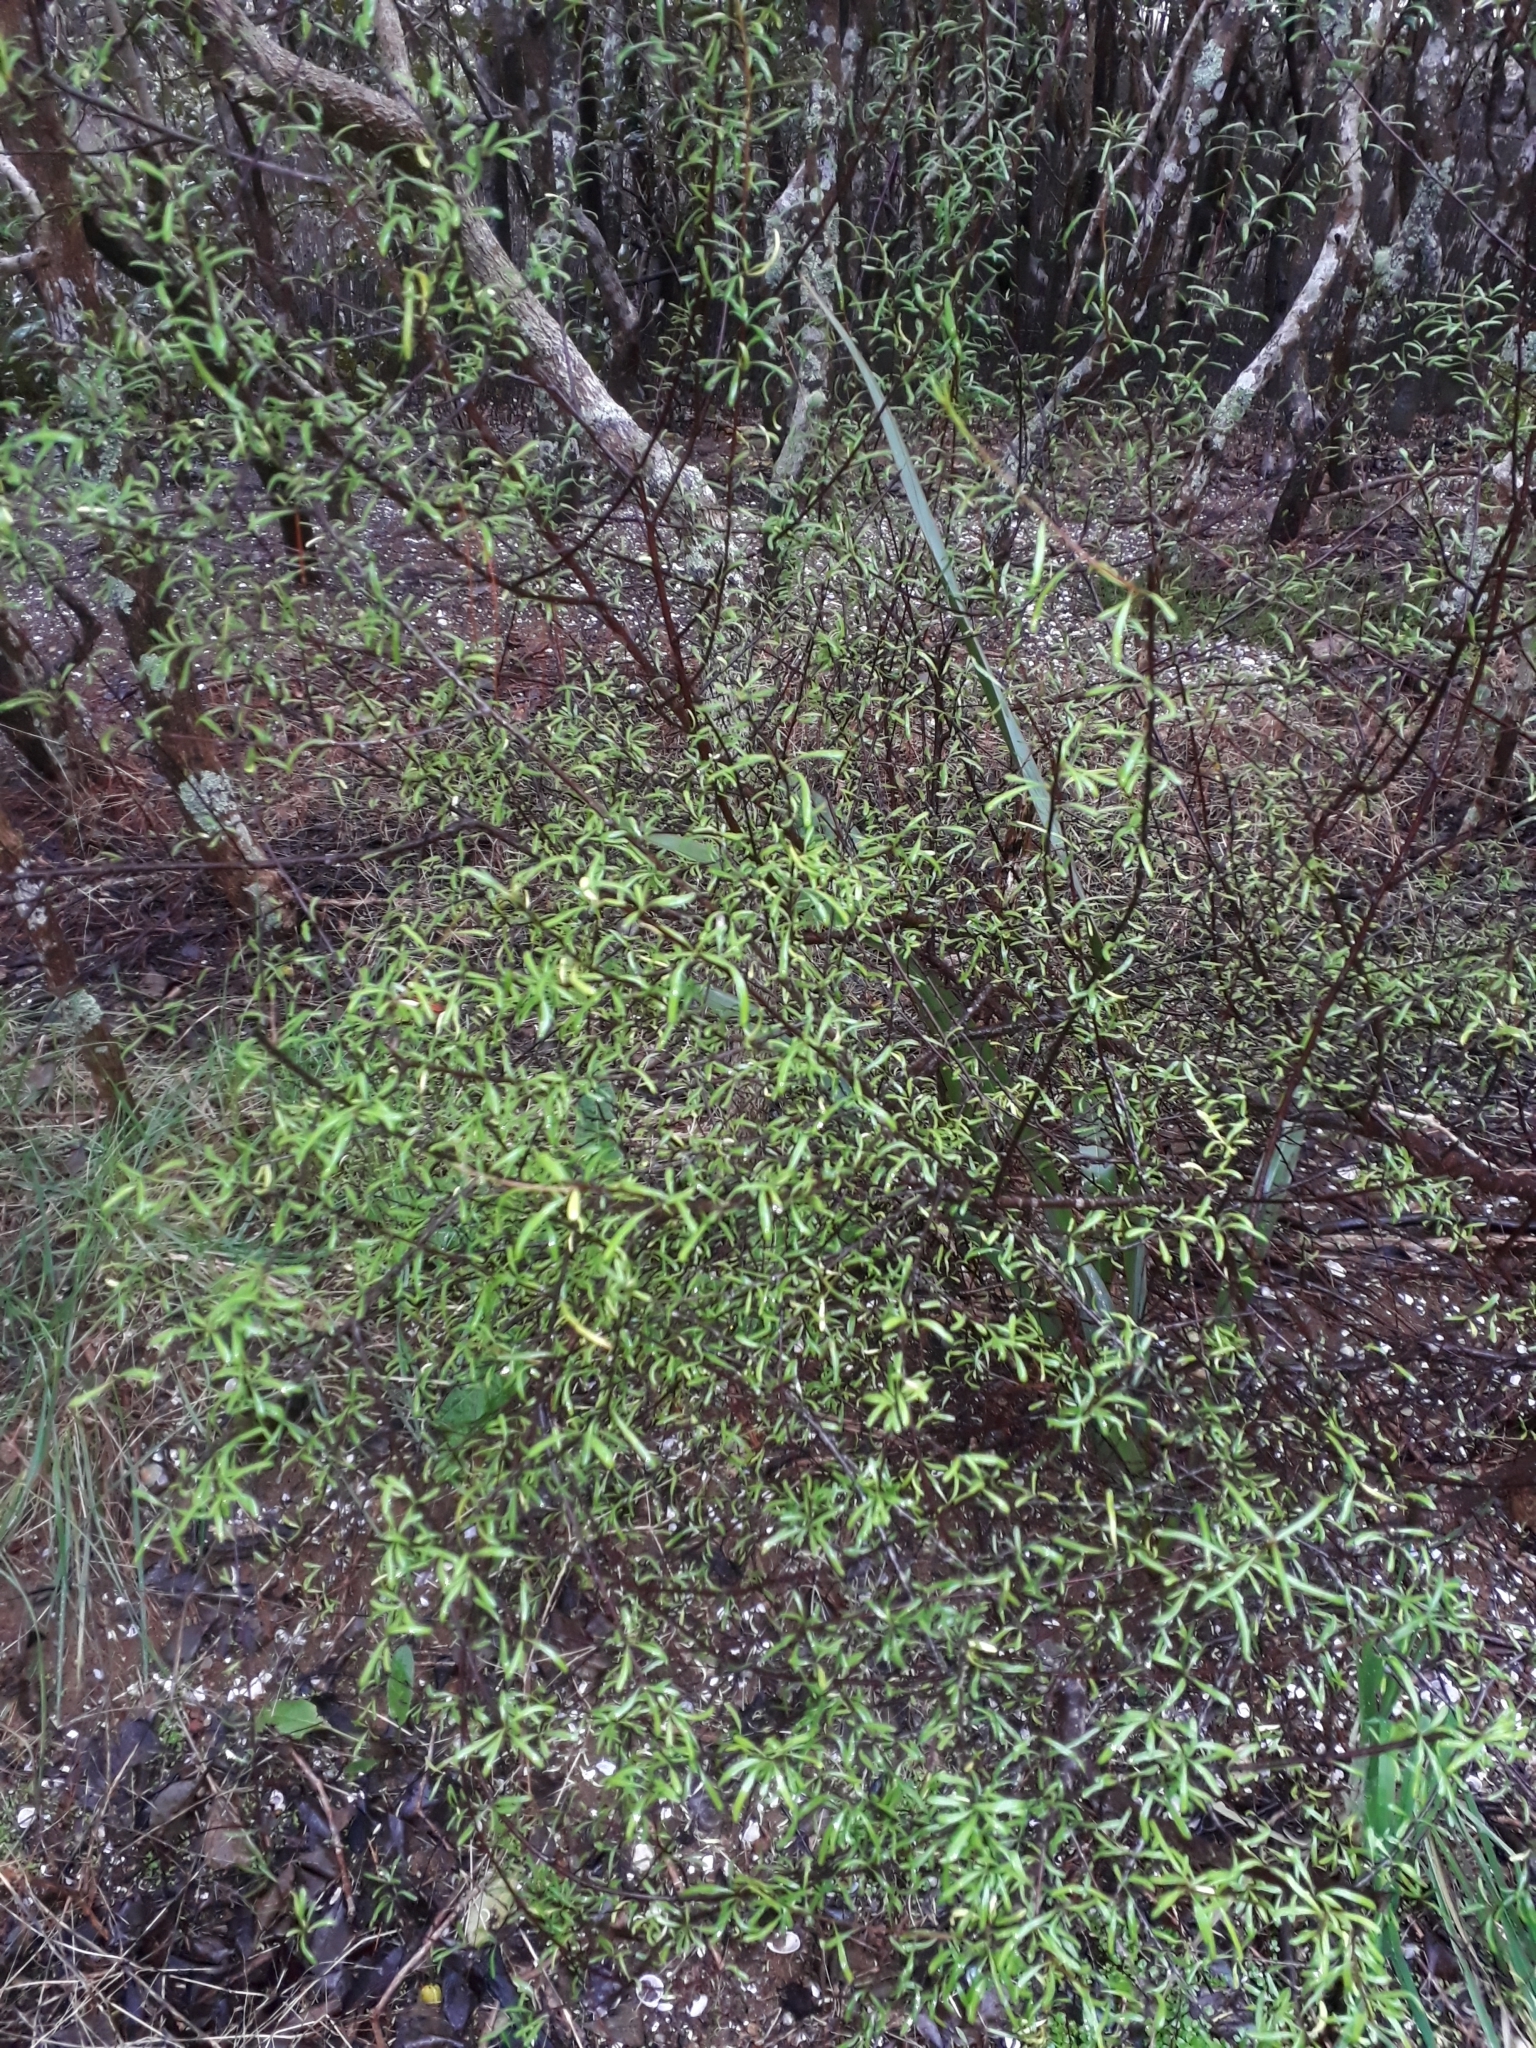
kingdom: Plantae
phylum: Tracheophyta
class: Magnoliopsida
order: Malvales
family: Malvaceae
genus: Plagianthus
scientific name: Plagianthus divaricatus
